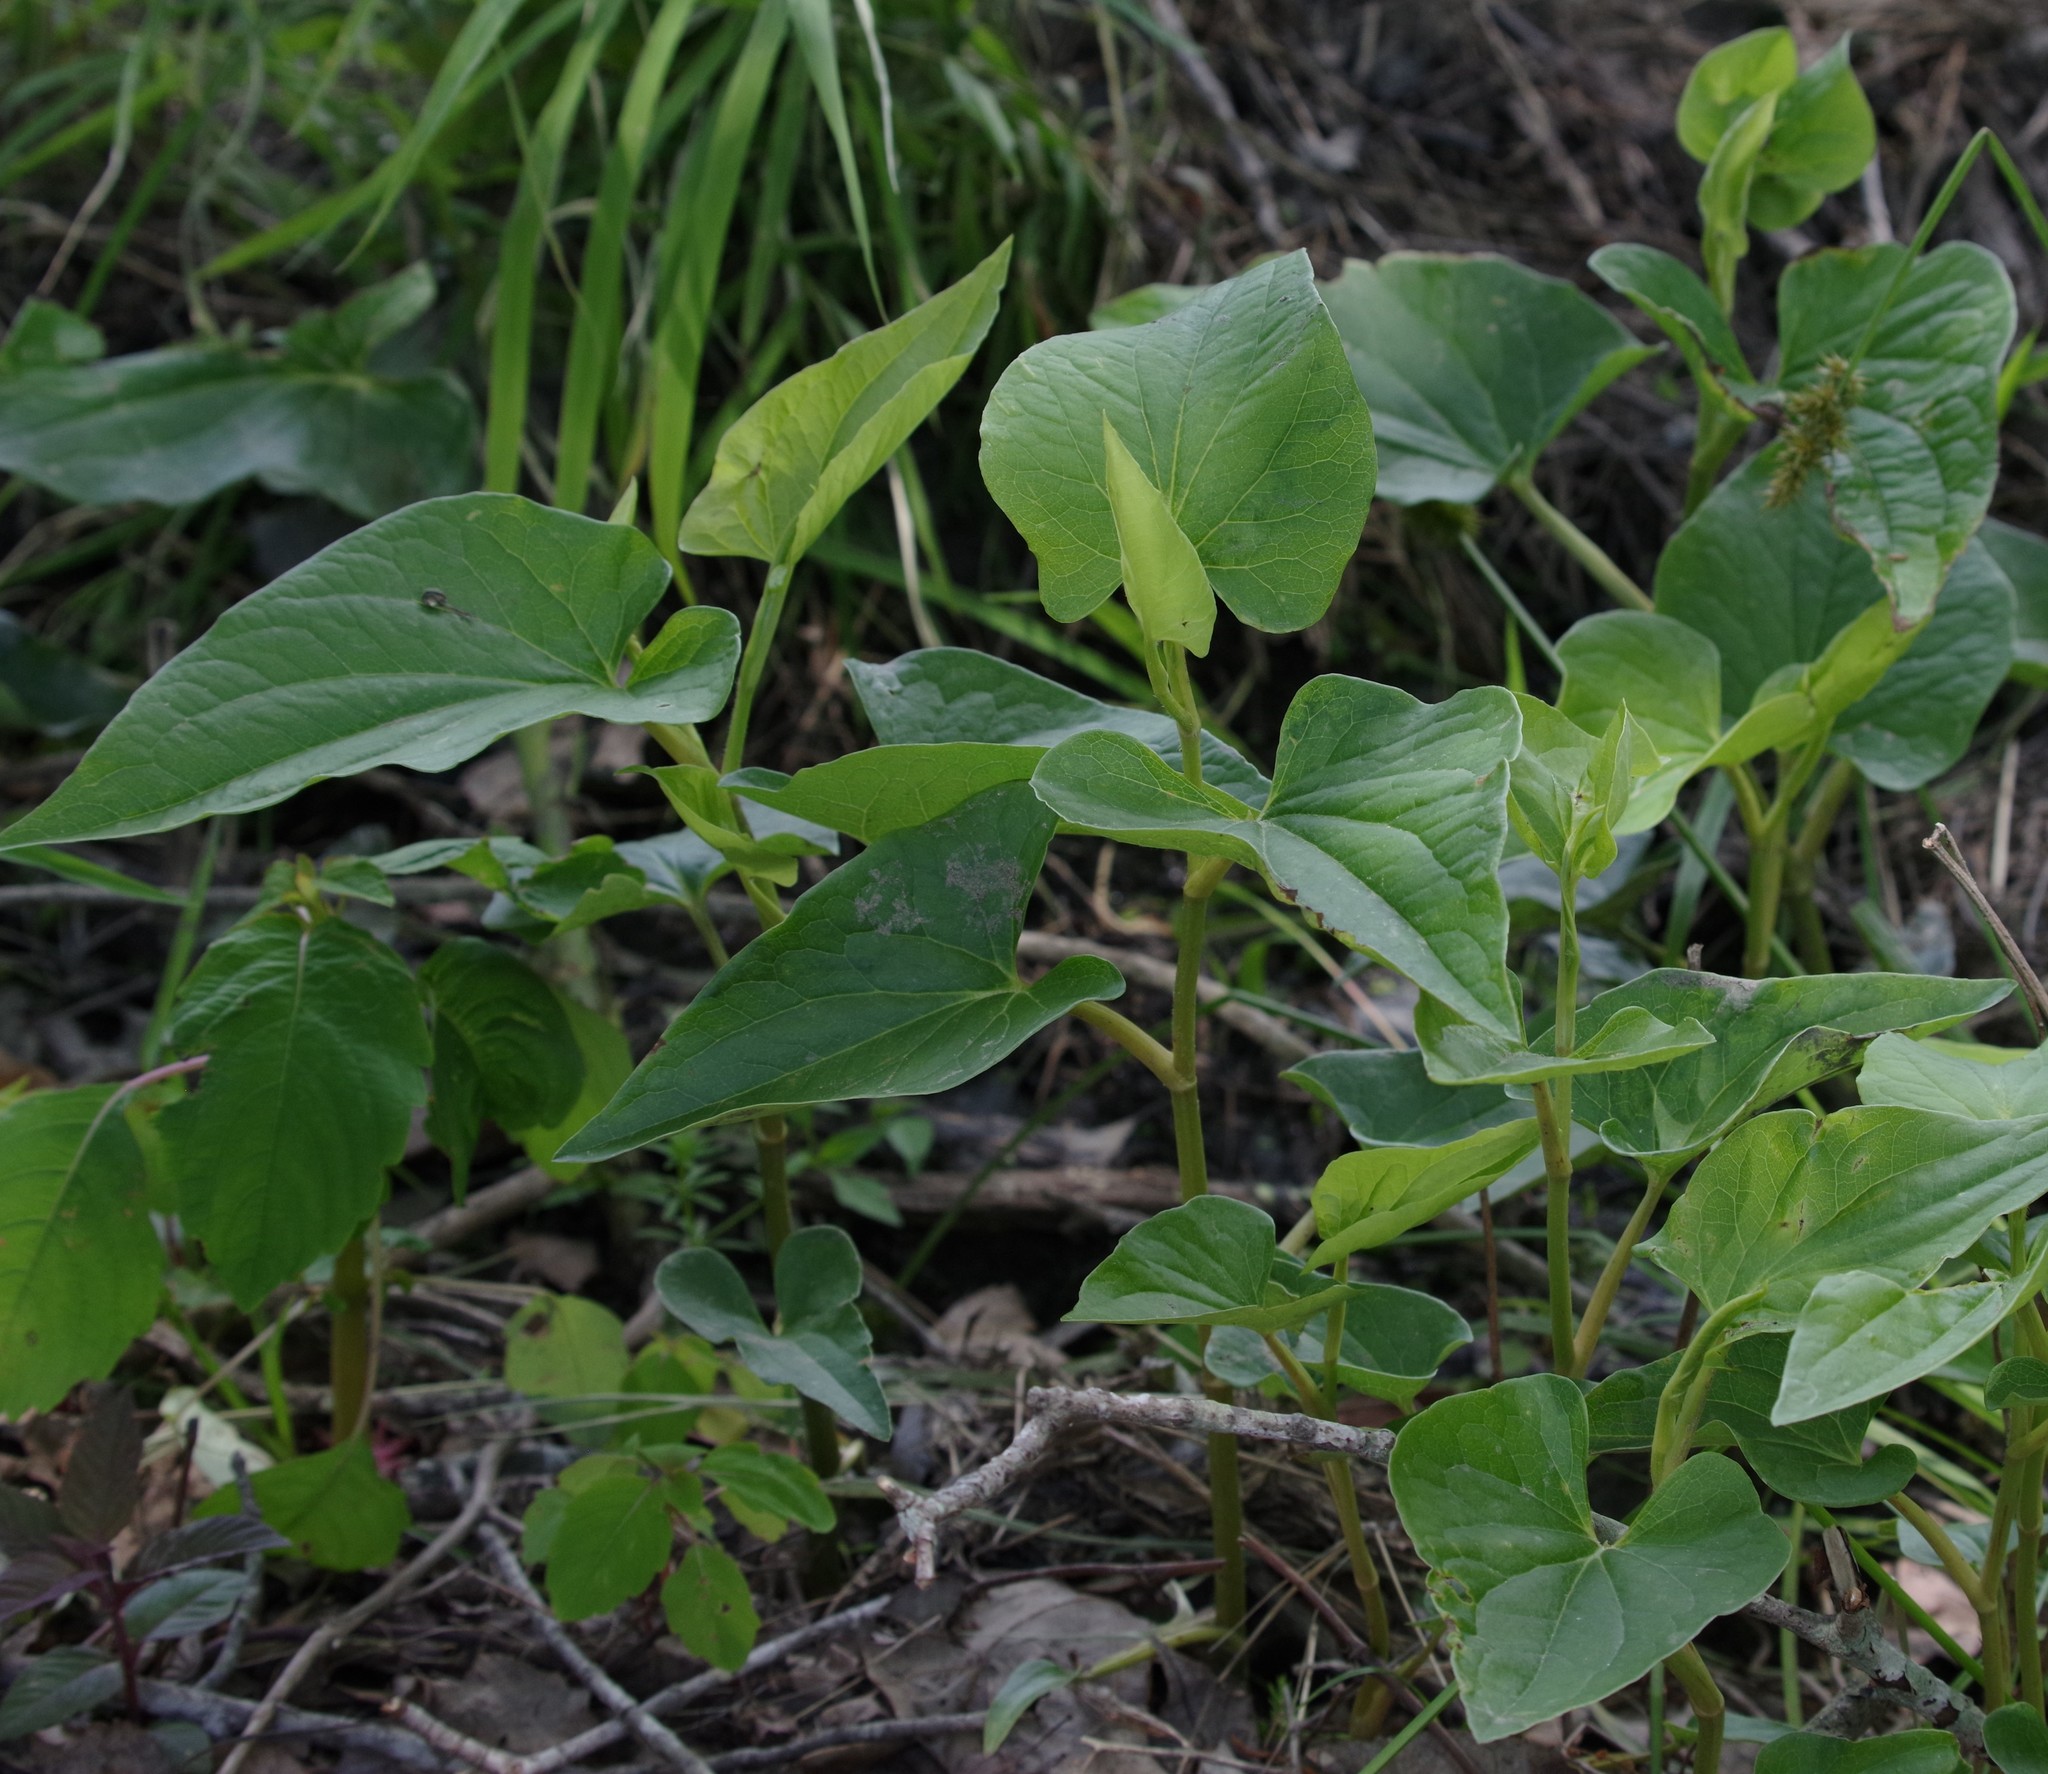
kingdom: Plantae
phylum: Tracheophyta
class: Magnoliopsida
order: Piperales
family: Saururaceae
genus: Saururus
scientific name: Saururus cernuus
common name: Lizard's-tail
